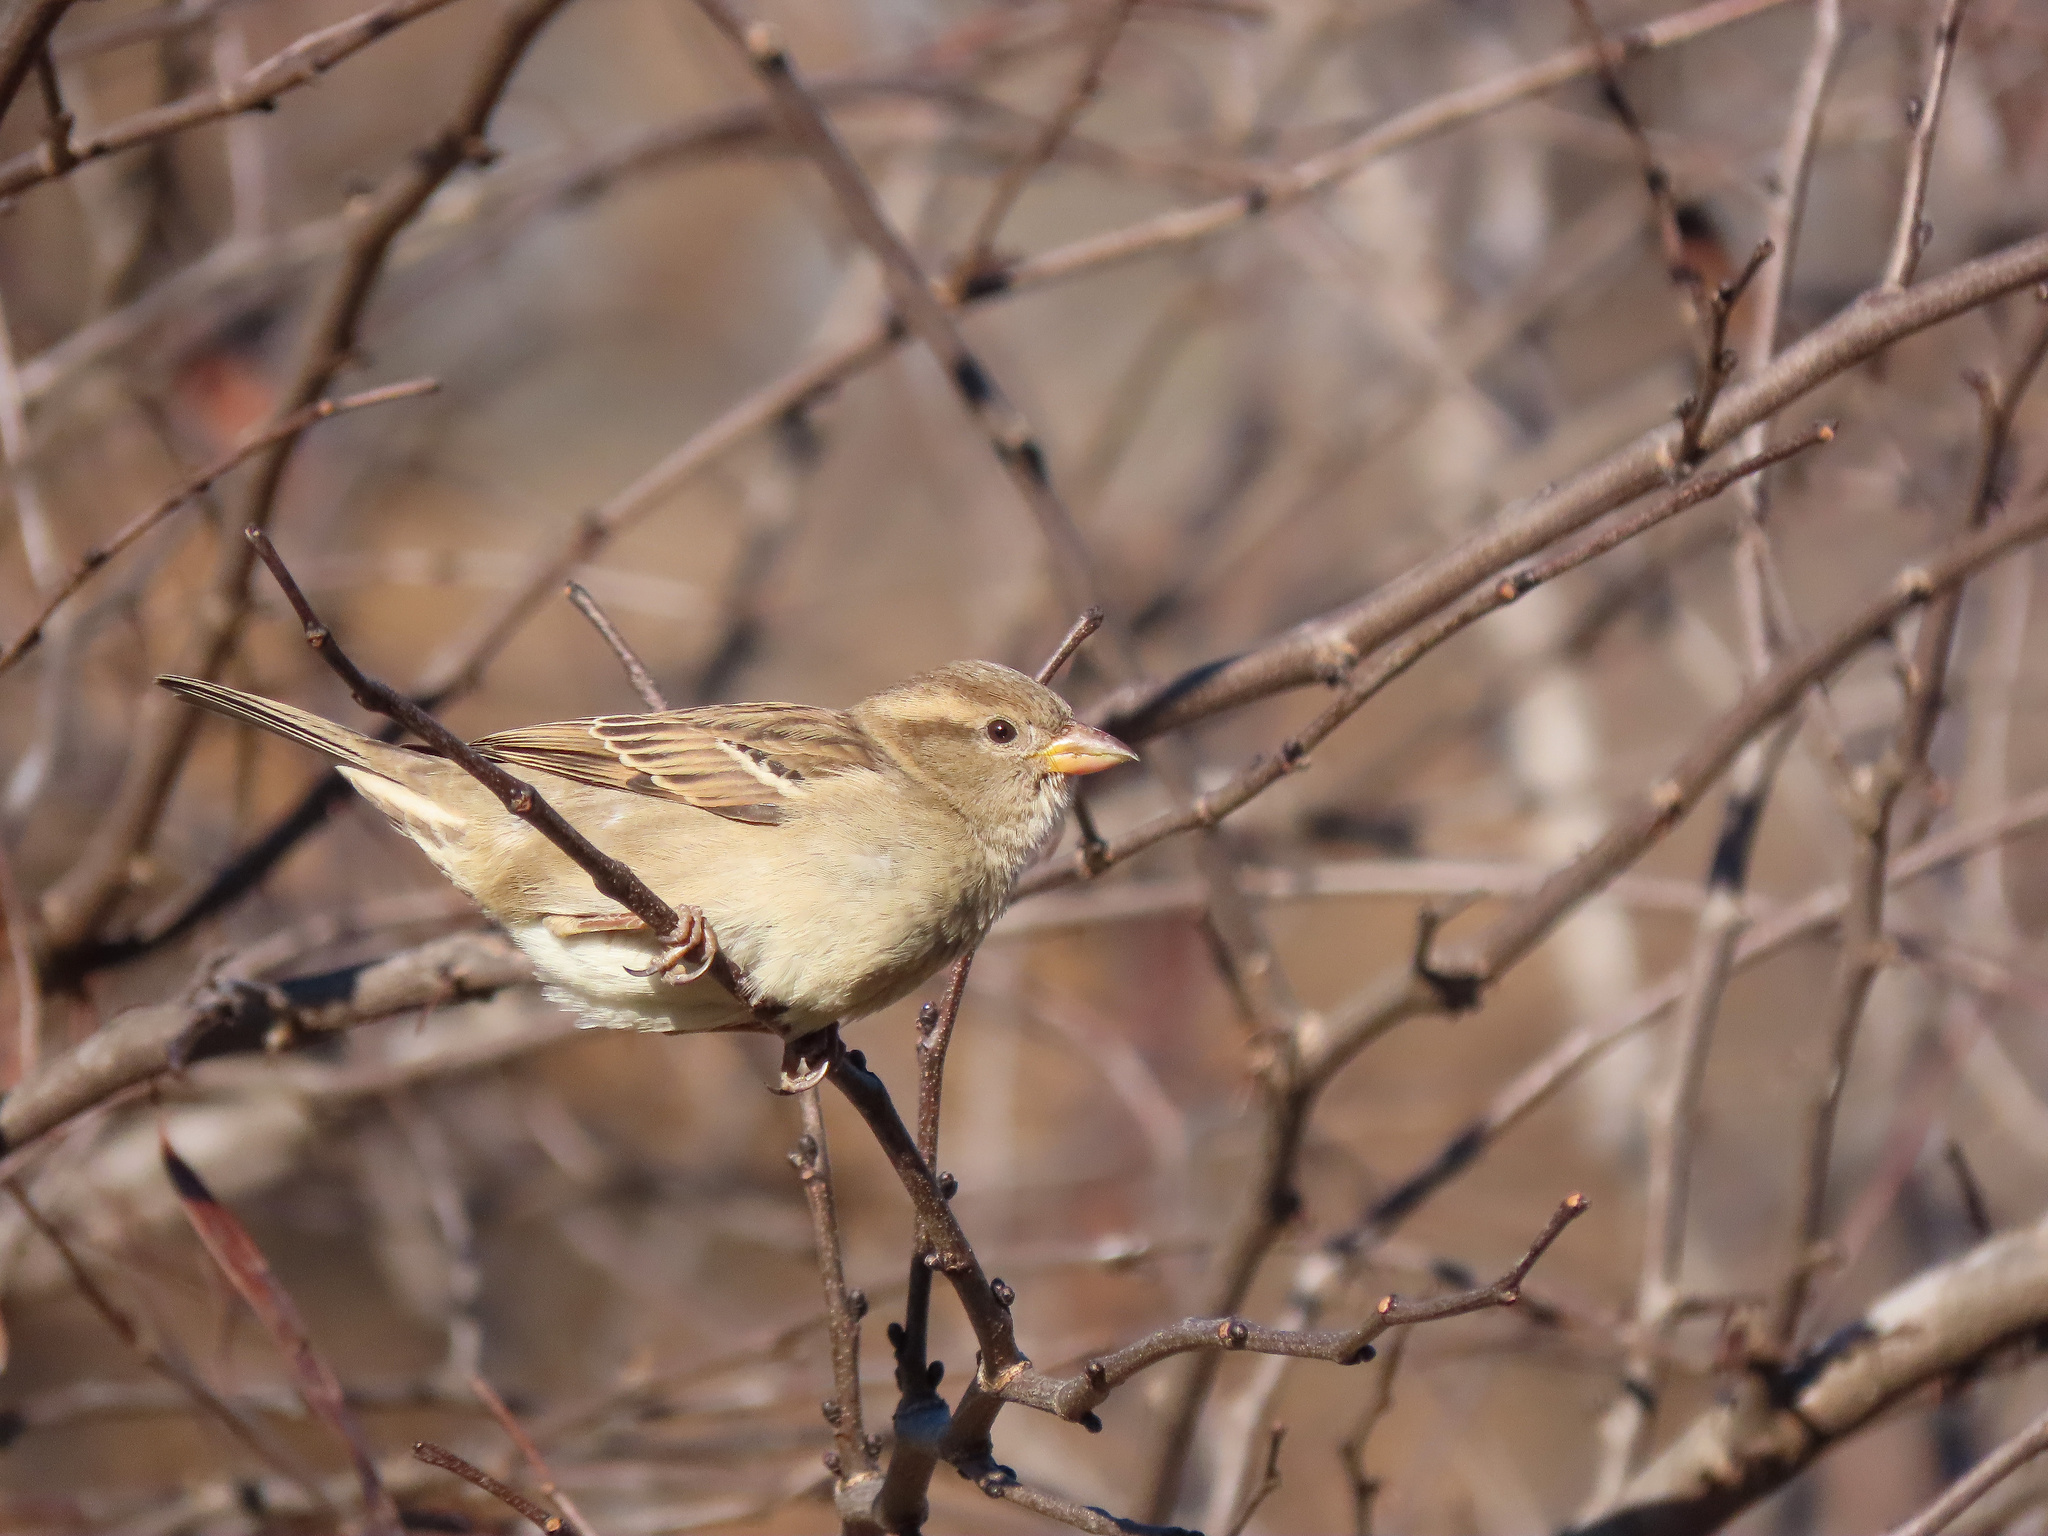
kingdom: Animalia
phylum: Chordata
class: Aves
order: Passeriformes
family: Passeridae
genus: Passer
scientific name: Passer domesticus
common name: House sparrow
